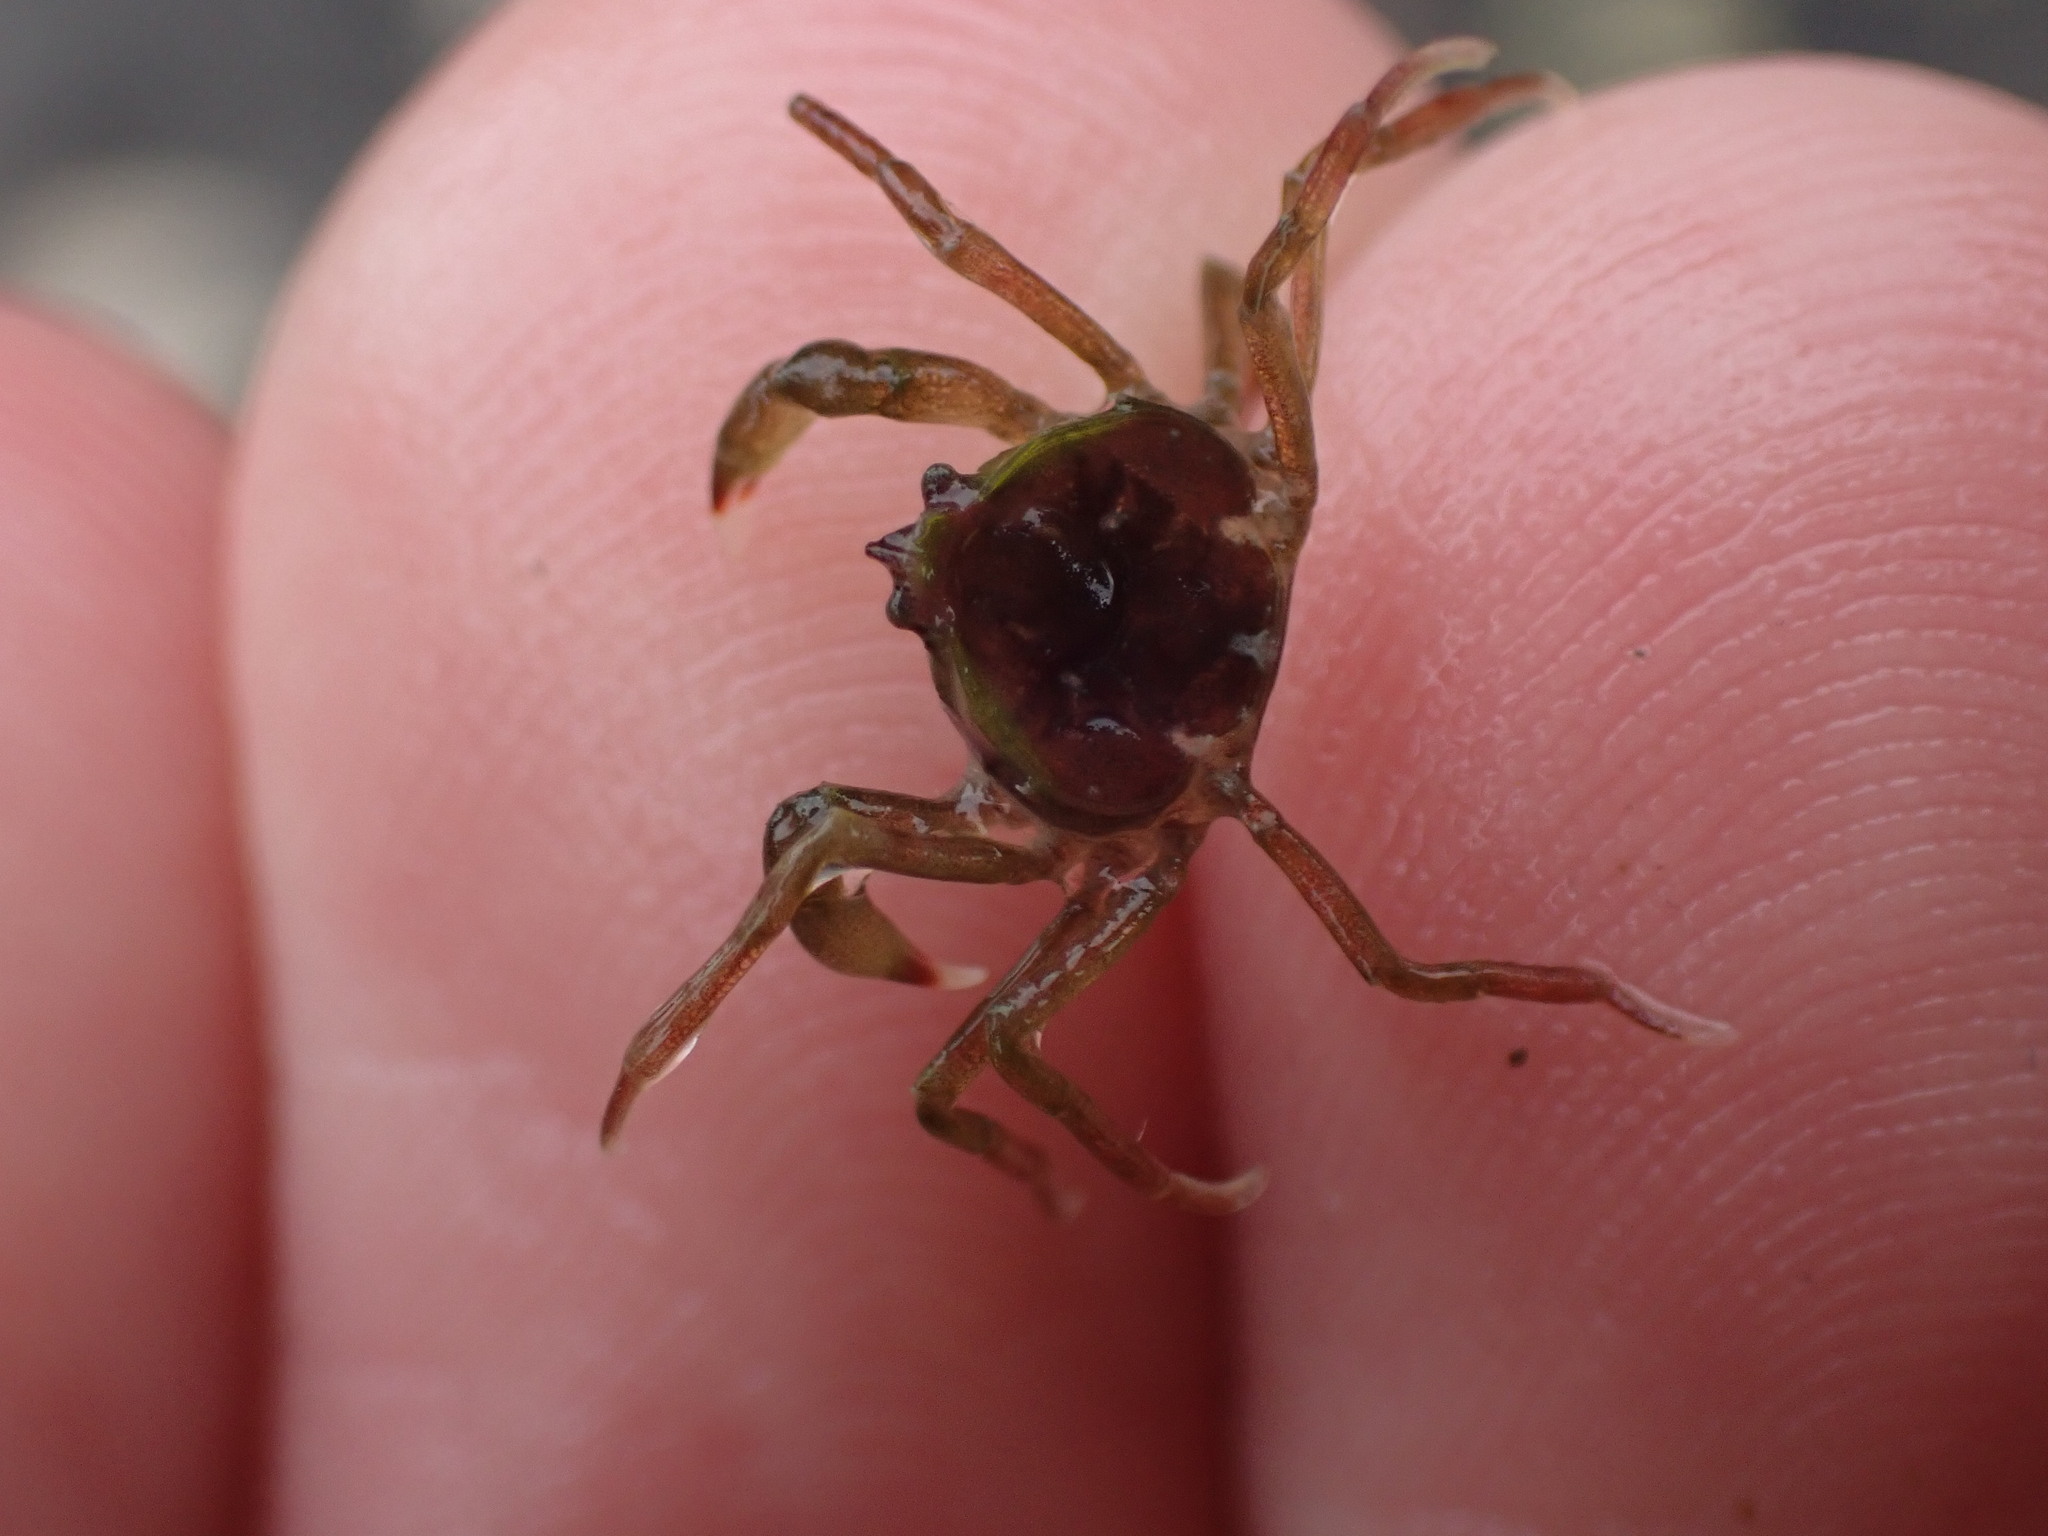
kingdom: Animalia
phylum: Arthropoda
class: Malacostraca
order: Decapoda
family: Hymenosomatidae
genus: Halicarcinus
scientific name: Halicarcinus varius
